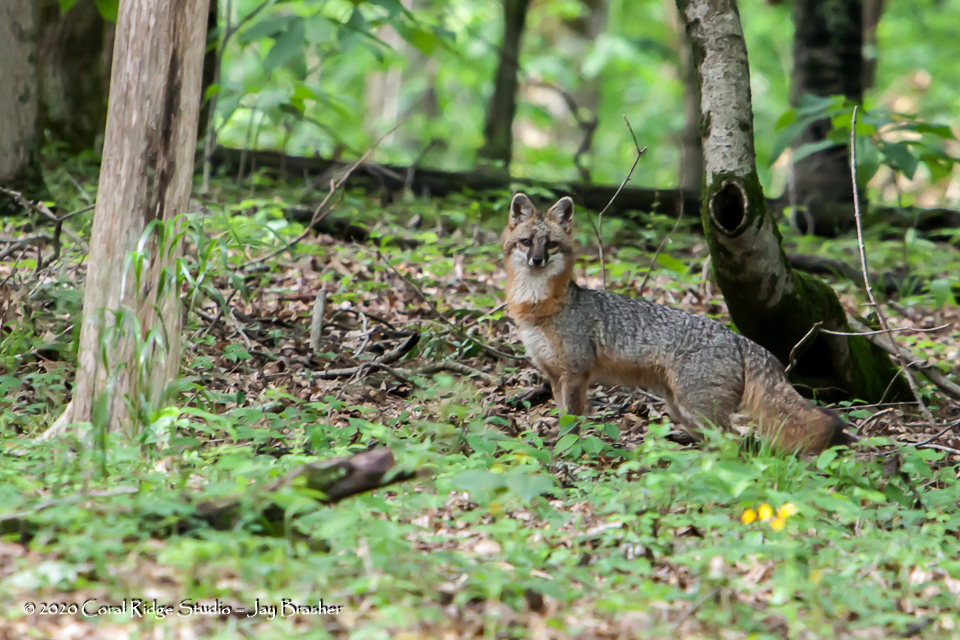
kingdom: Animalia
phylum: Chordata
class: Mammalia
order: Carnivora
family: Canidae
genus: Urocyon
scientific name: Urocyon cinereoargenteus
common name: Gray fox
